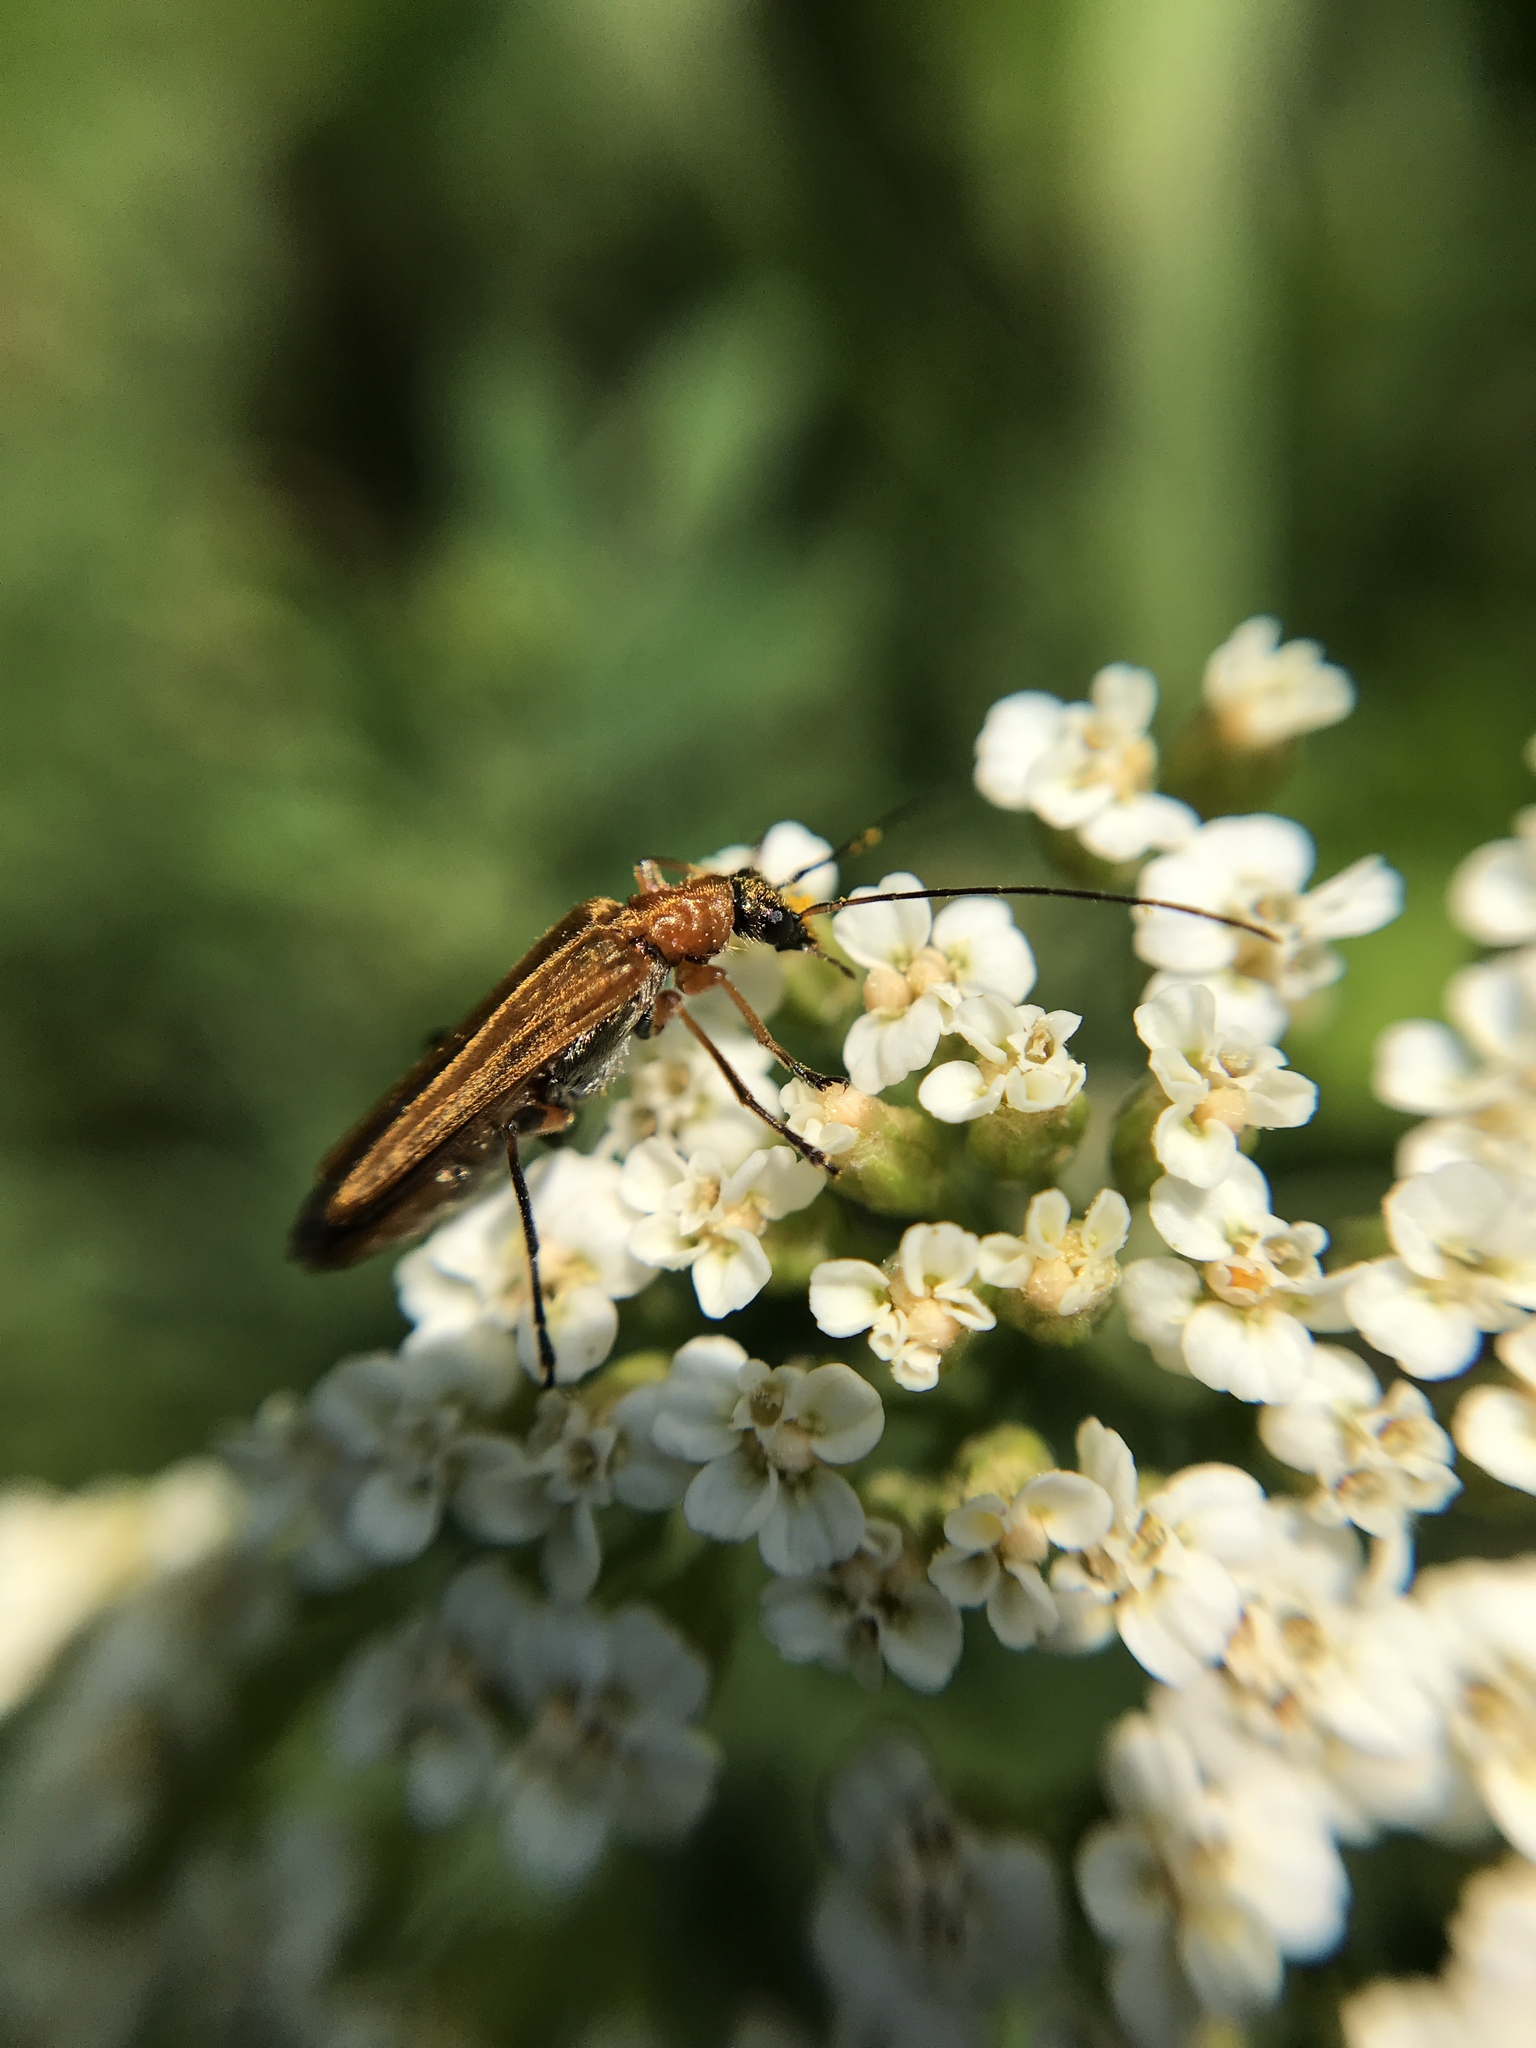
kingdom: Animalia
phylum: Arthropoda
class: Insecta
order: Coleoptera
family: Oedemeridae
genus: Oedemera
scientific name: Oedemera podagrariae
